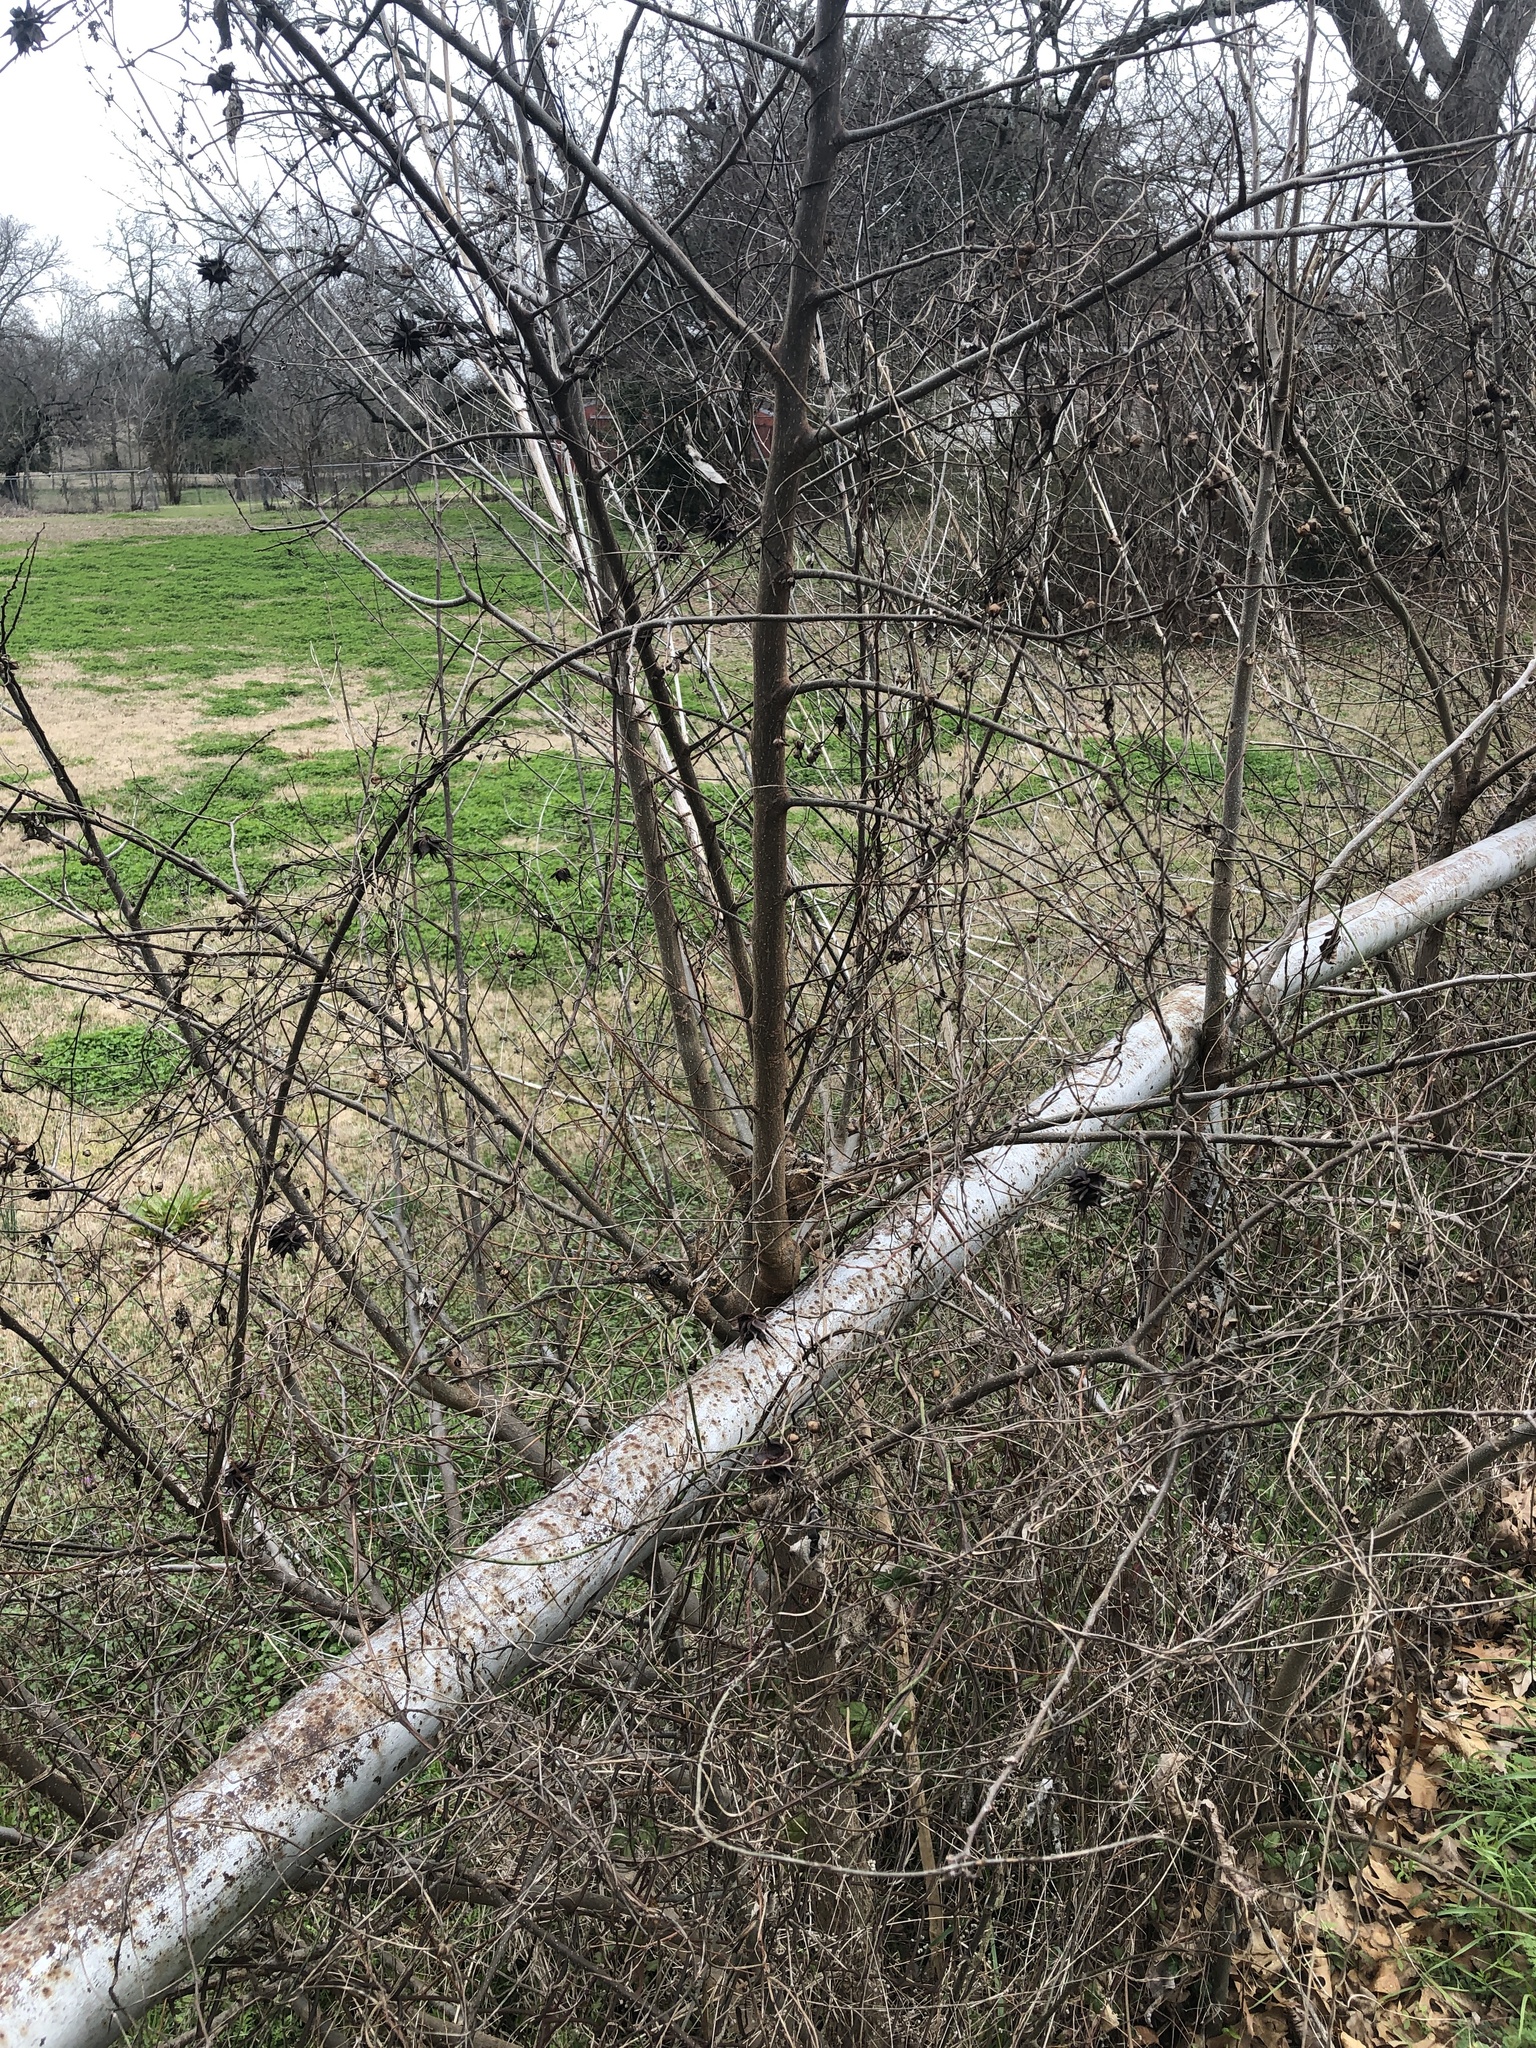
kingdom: Plantae
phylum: Tracheophyta
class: Magnoliopsida
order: Ranunculales
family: Ranunculaceae
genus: Clematis
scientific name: Clematis pitcheri
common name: Bellflower clematis
